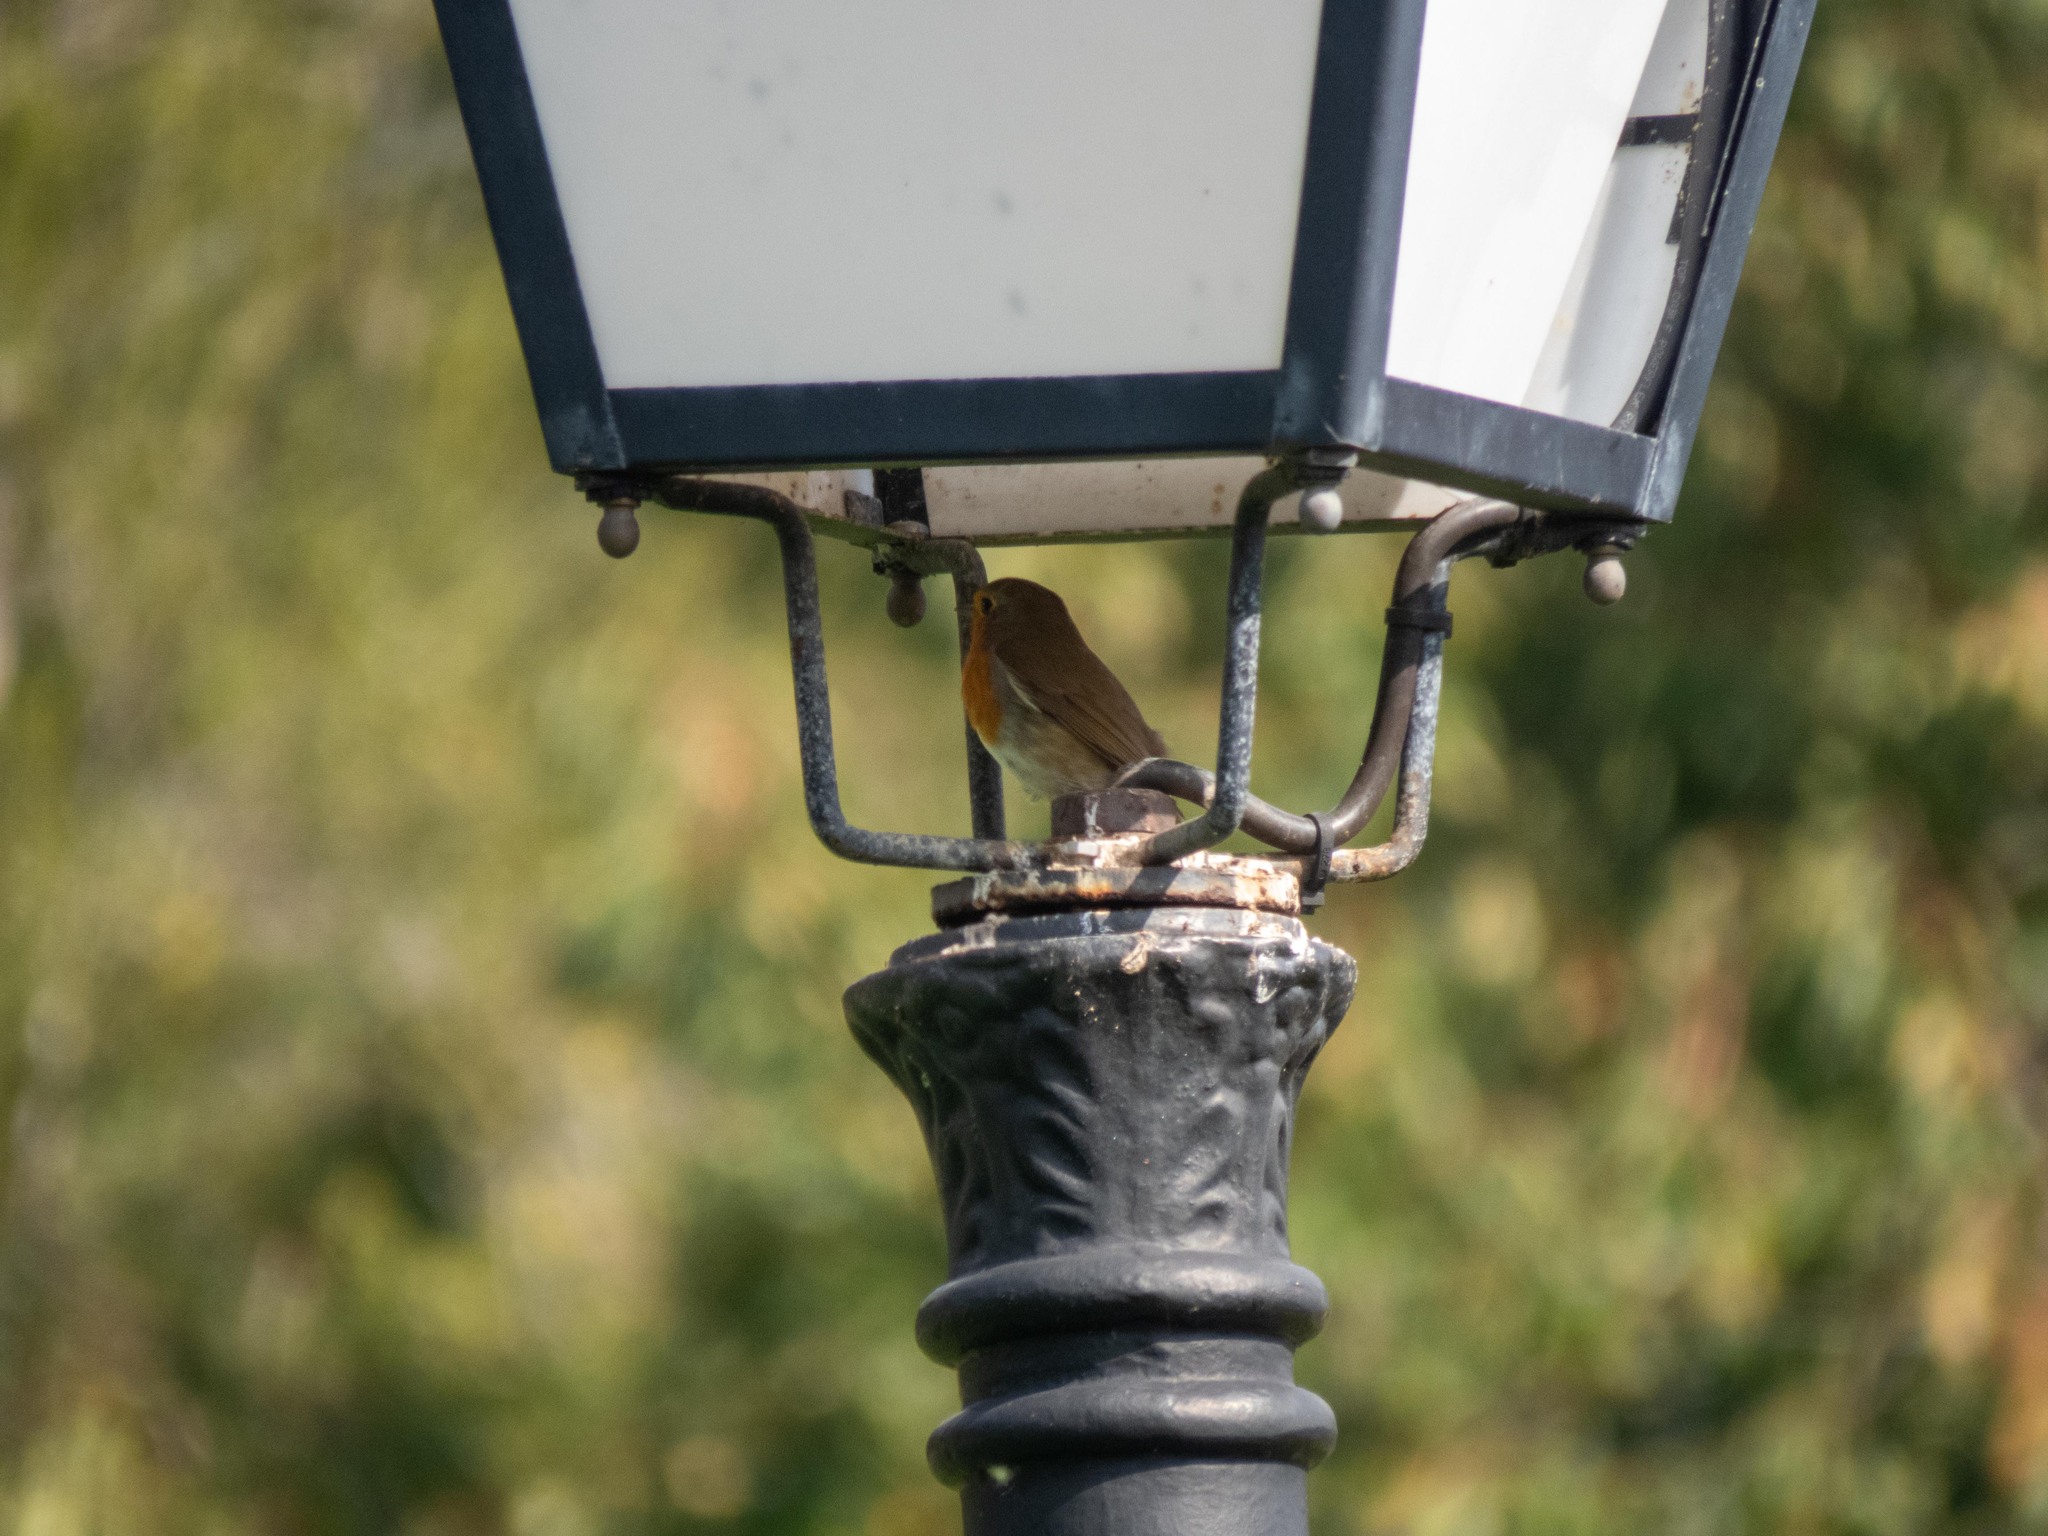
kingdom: Animalia
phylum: Chordata
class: Aves
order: Passeriformes
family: Muscicapidae
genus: Erithacus
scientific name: Erithacus rubecula
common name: European robin
